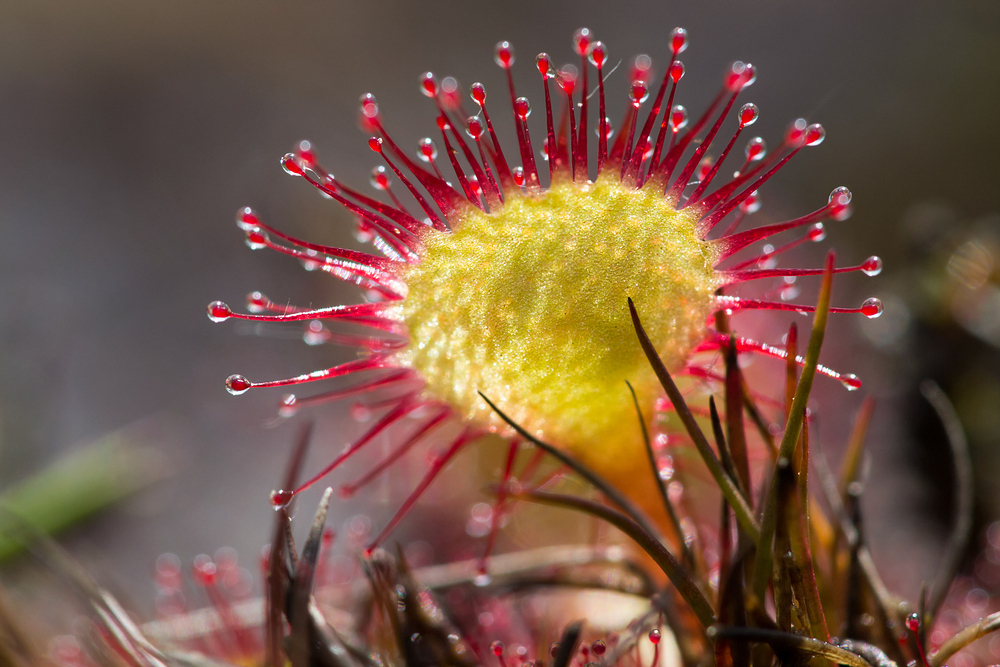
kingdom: Plantae
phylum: Tracheophyta
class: Magnoliopsida
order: Caryophyllales
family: Droseraceae
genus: Drosera
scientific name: Drosera rotundifolia
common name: Round-leaved sundew
